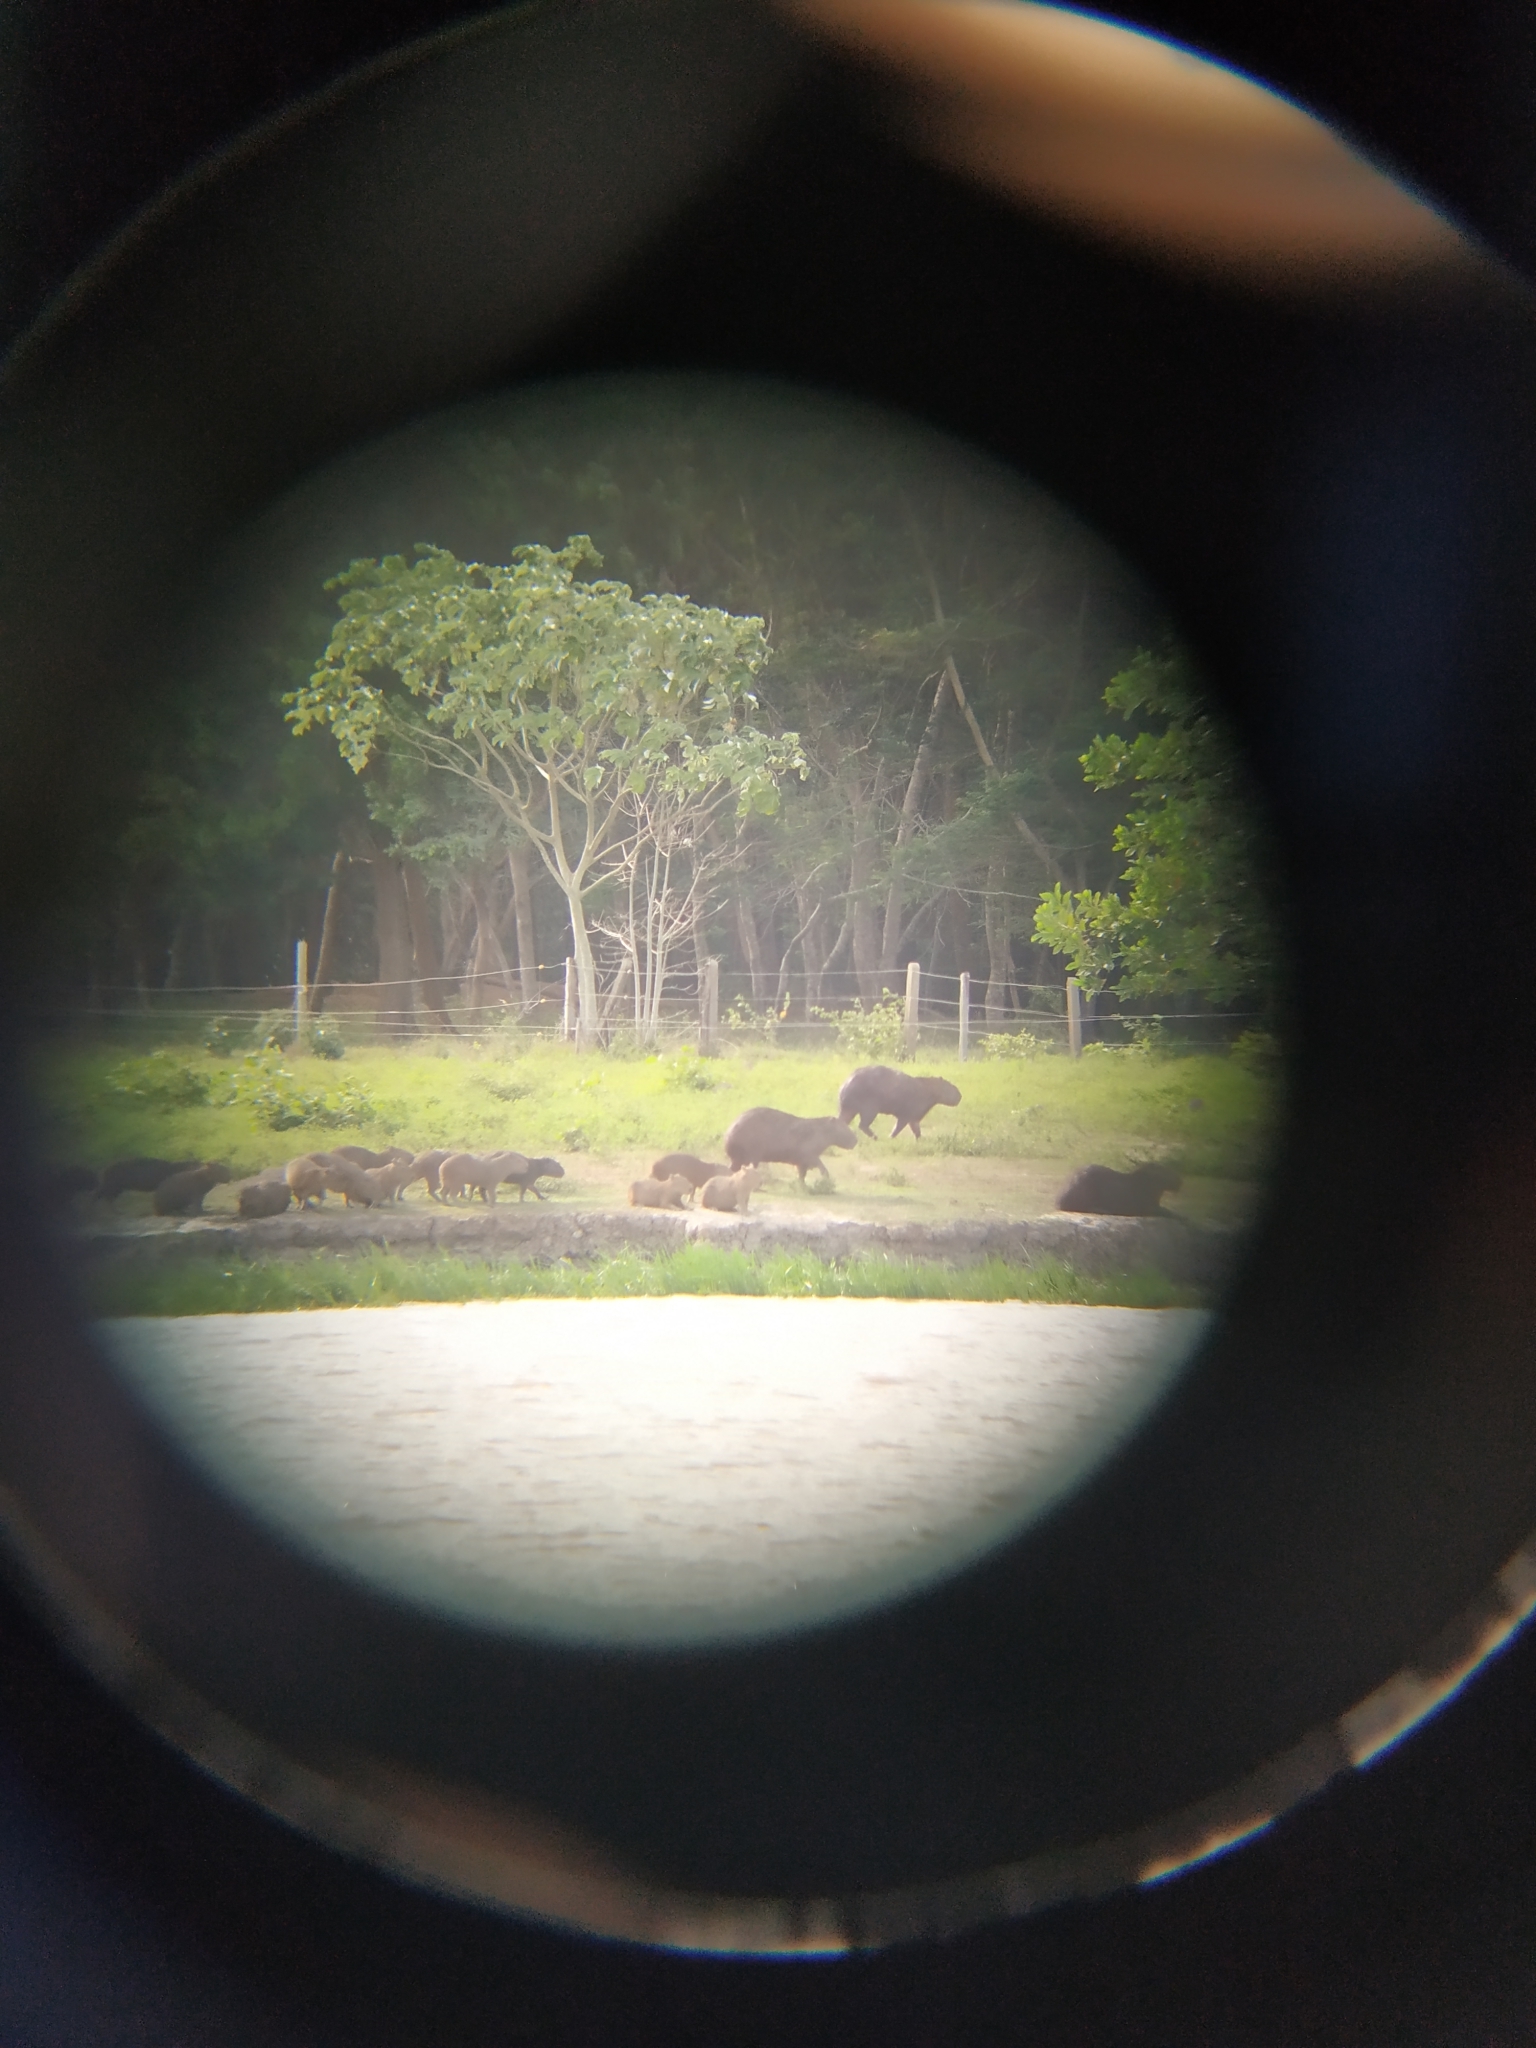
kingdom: Animalia
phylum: Chordata
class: Mammalia
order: Rodentia
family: Caviidae
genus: Hydrochoerus
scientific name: Hydrochoerus hydrochaeris
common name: Capybara
